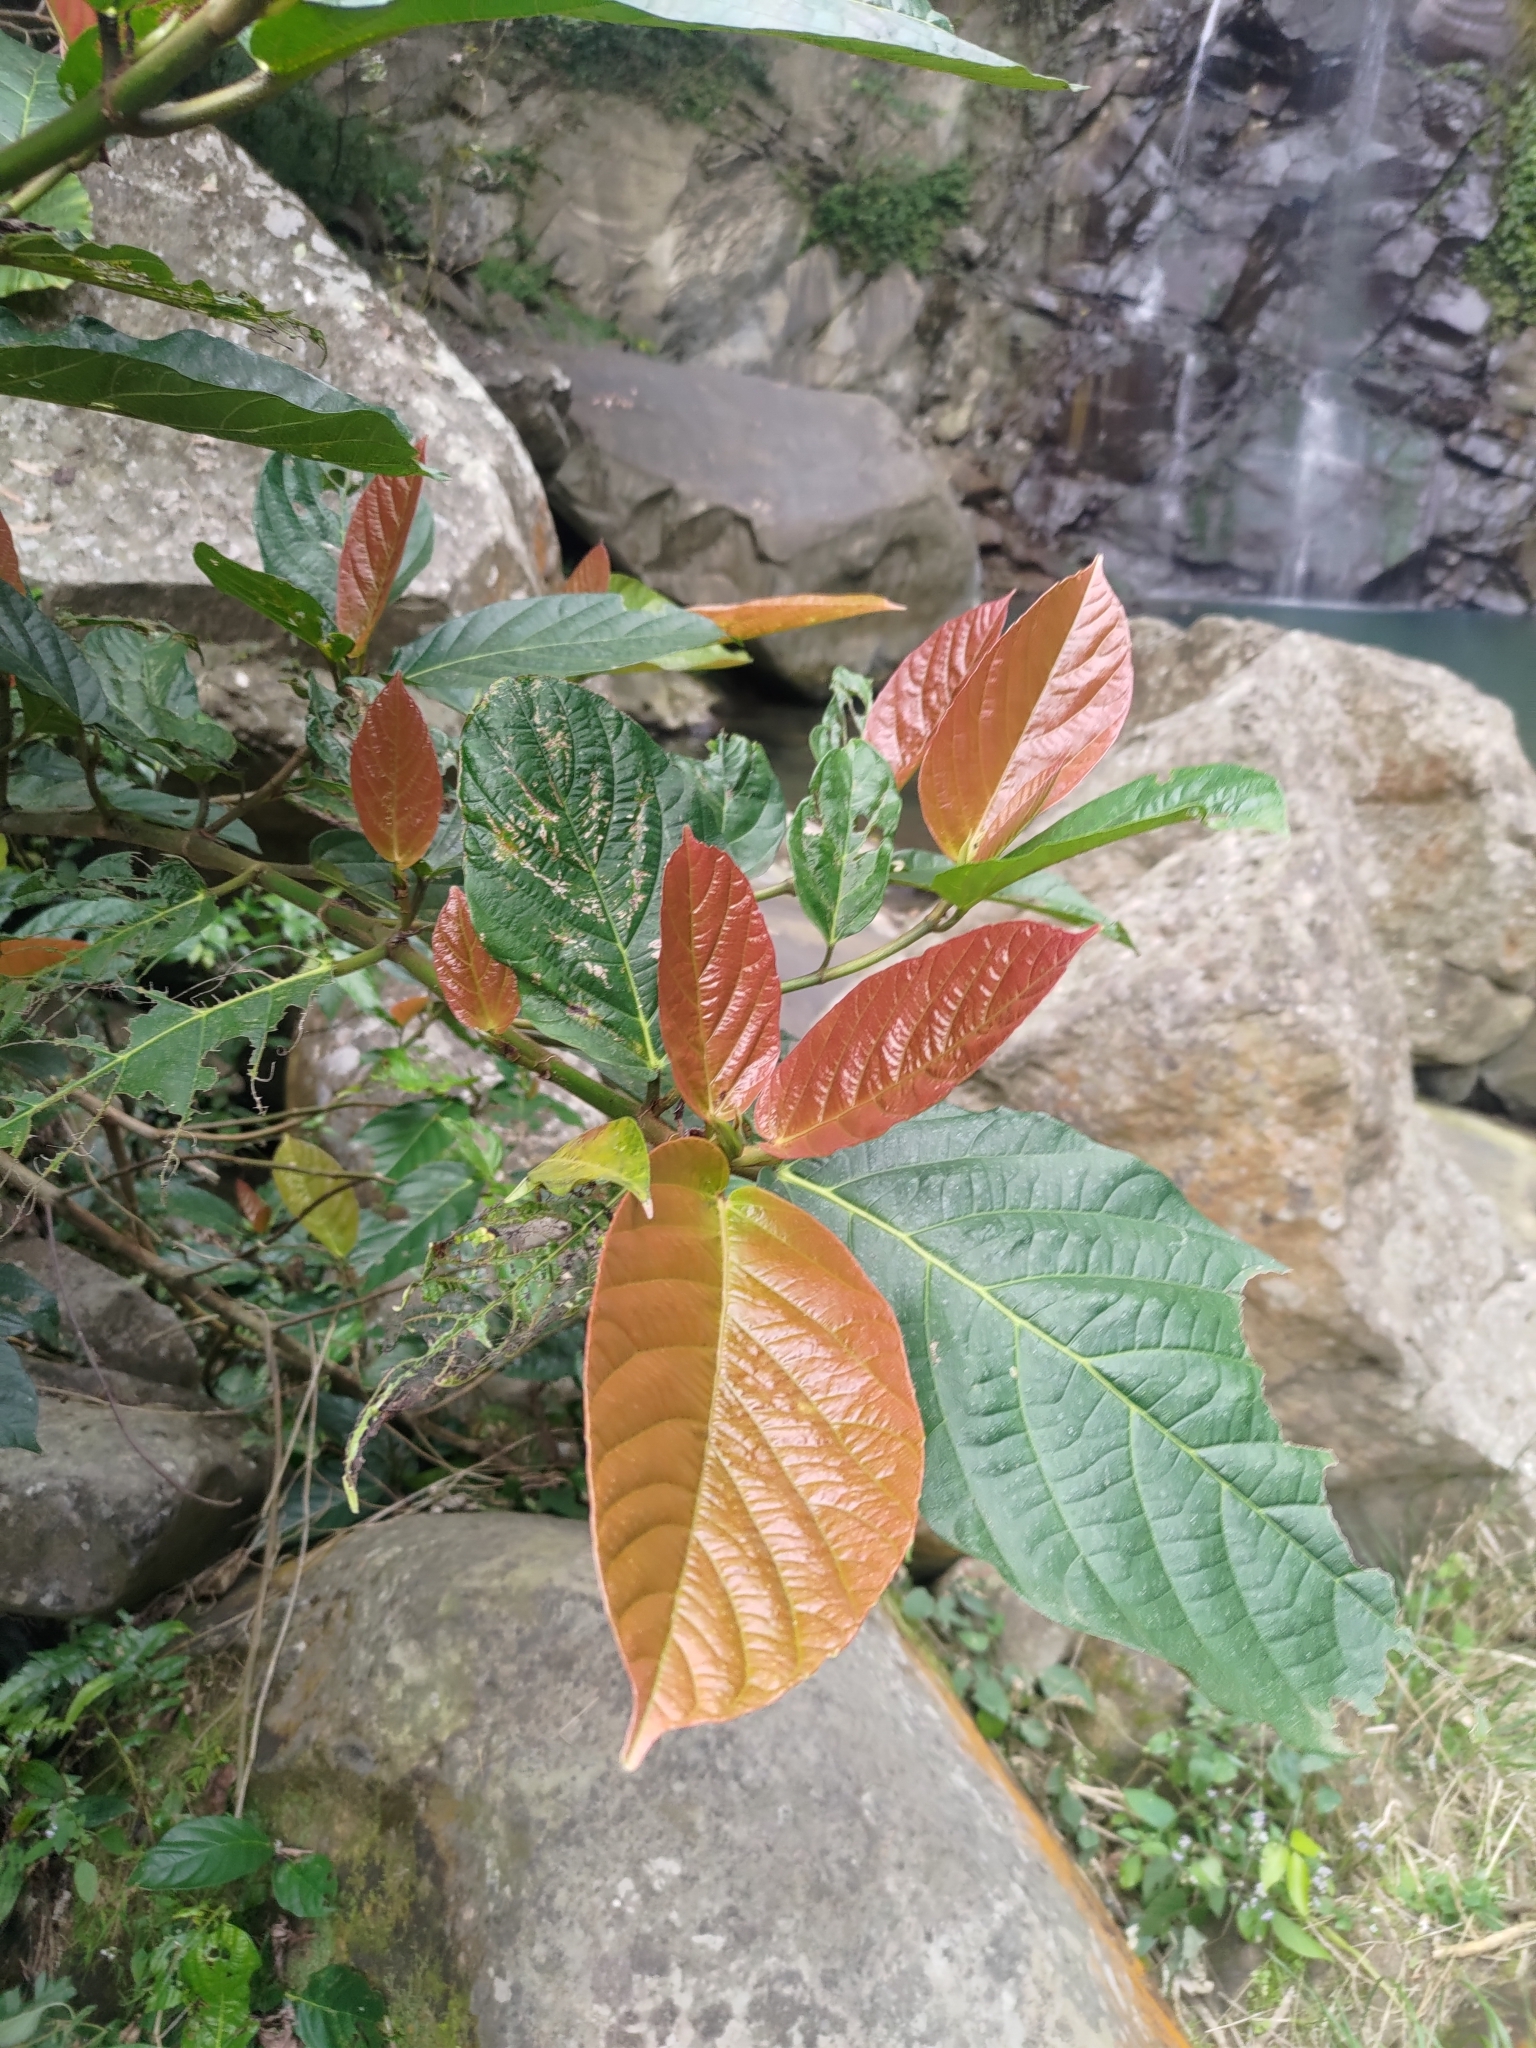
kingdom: Plantae
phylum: Tracheophyta
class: Magnoliopsida
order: Rosales
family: Moraceae
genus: Ficus
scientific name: Ficus benguetensis
